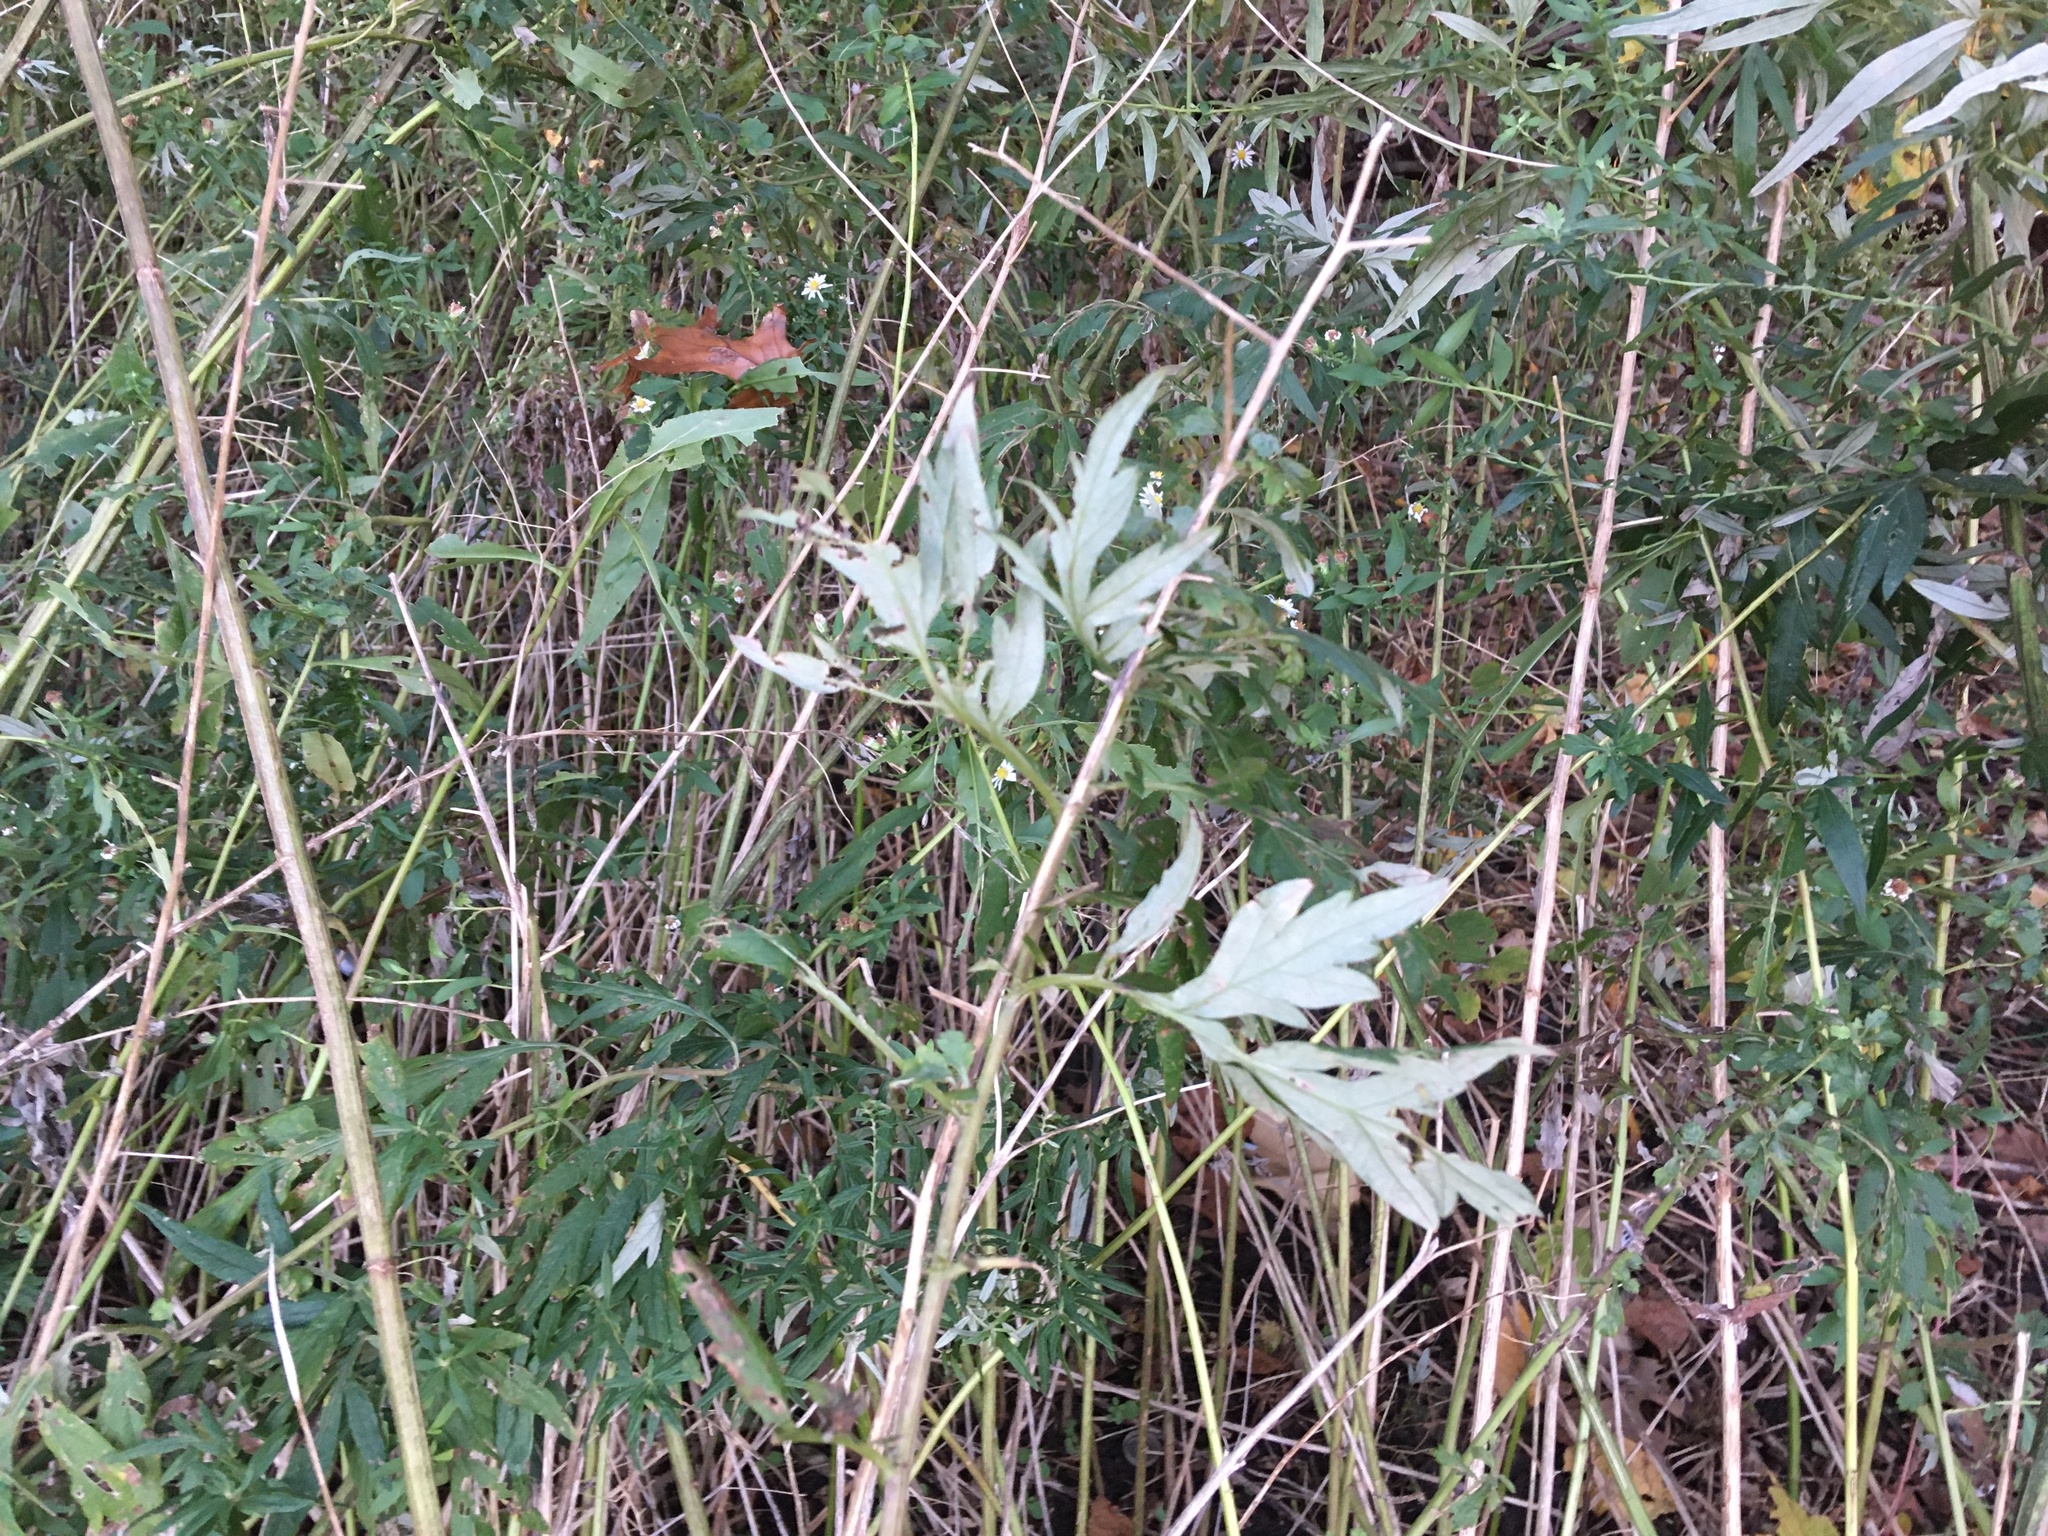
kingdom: Plantae
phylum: Tracheophyta
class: Magnoliopsida
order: Asterales
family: Asteraceae
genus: Artemisia
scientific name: Artemisia vulgaris
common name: Mugwort
